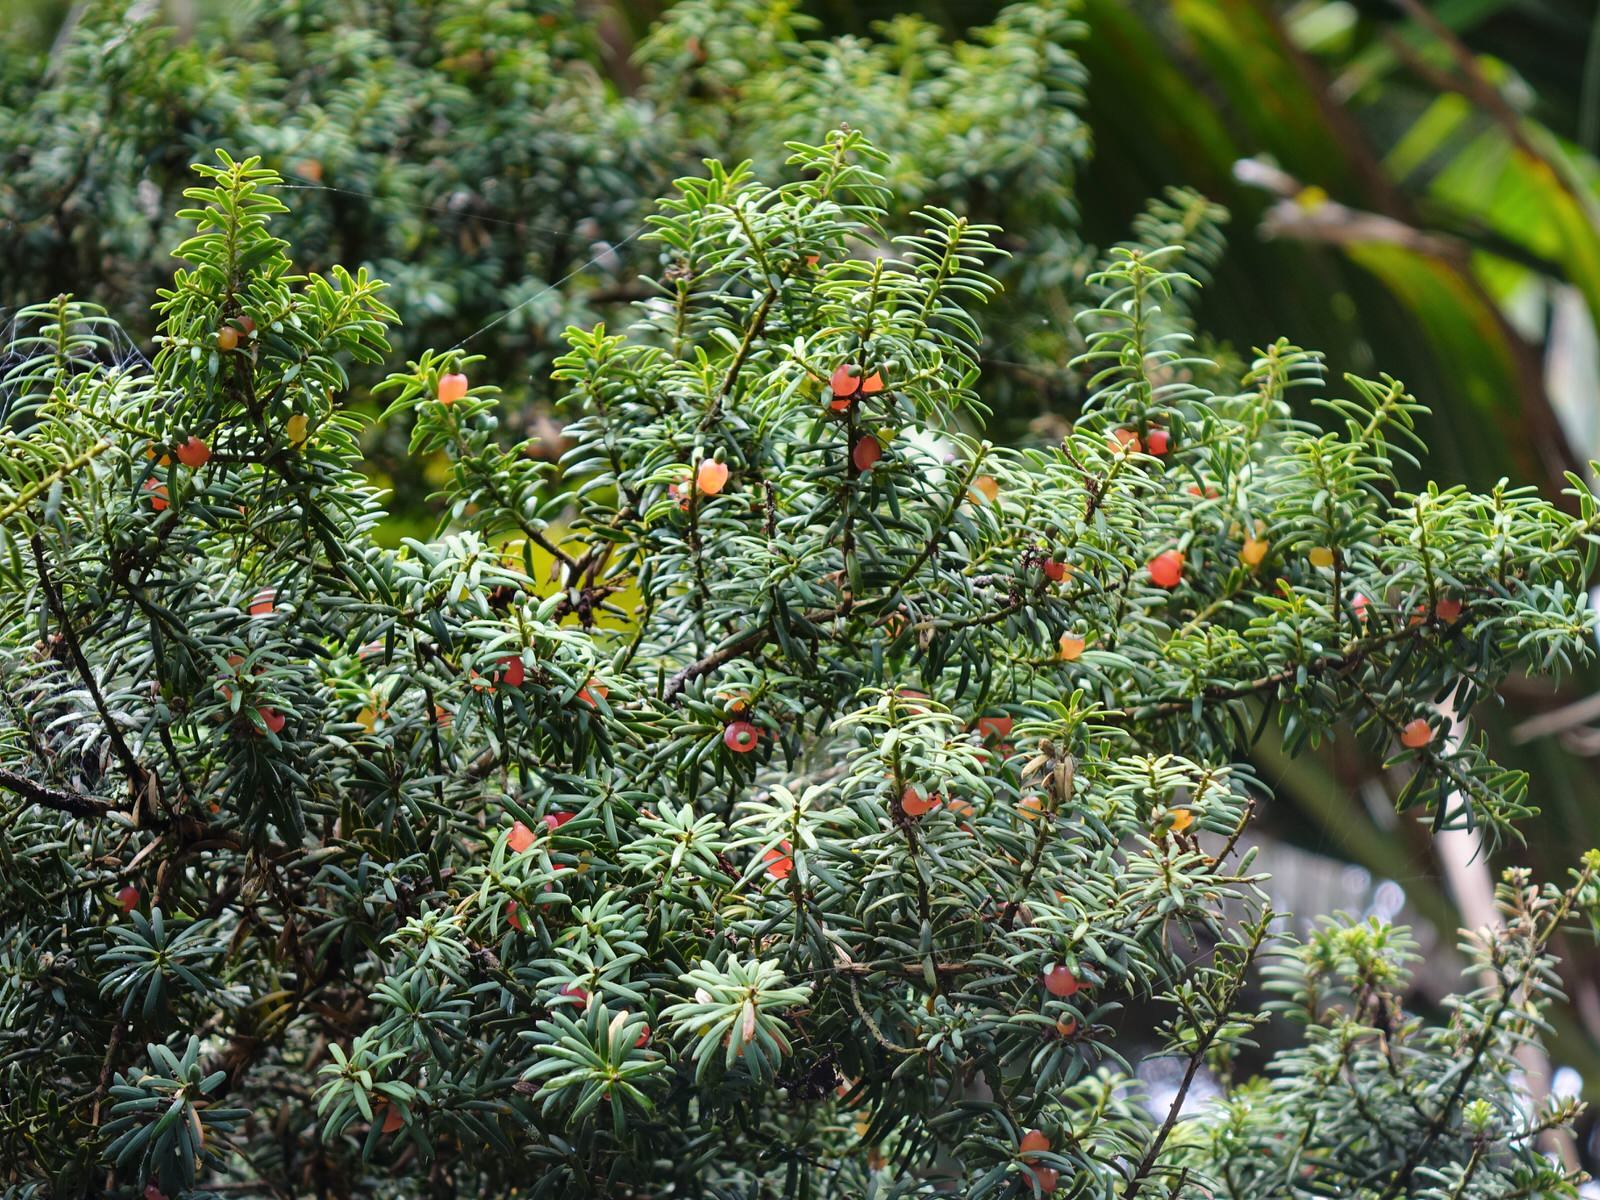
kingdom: Plantae
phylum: Tracheophyta
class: Pinopsida
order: Pinales
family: Podocarpaceae
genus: Podocarpus
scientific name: Podocarpus totara
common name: Totara
